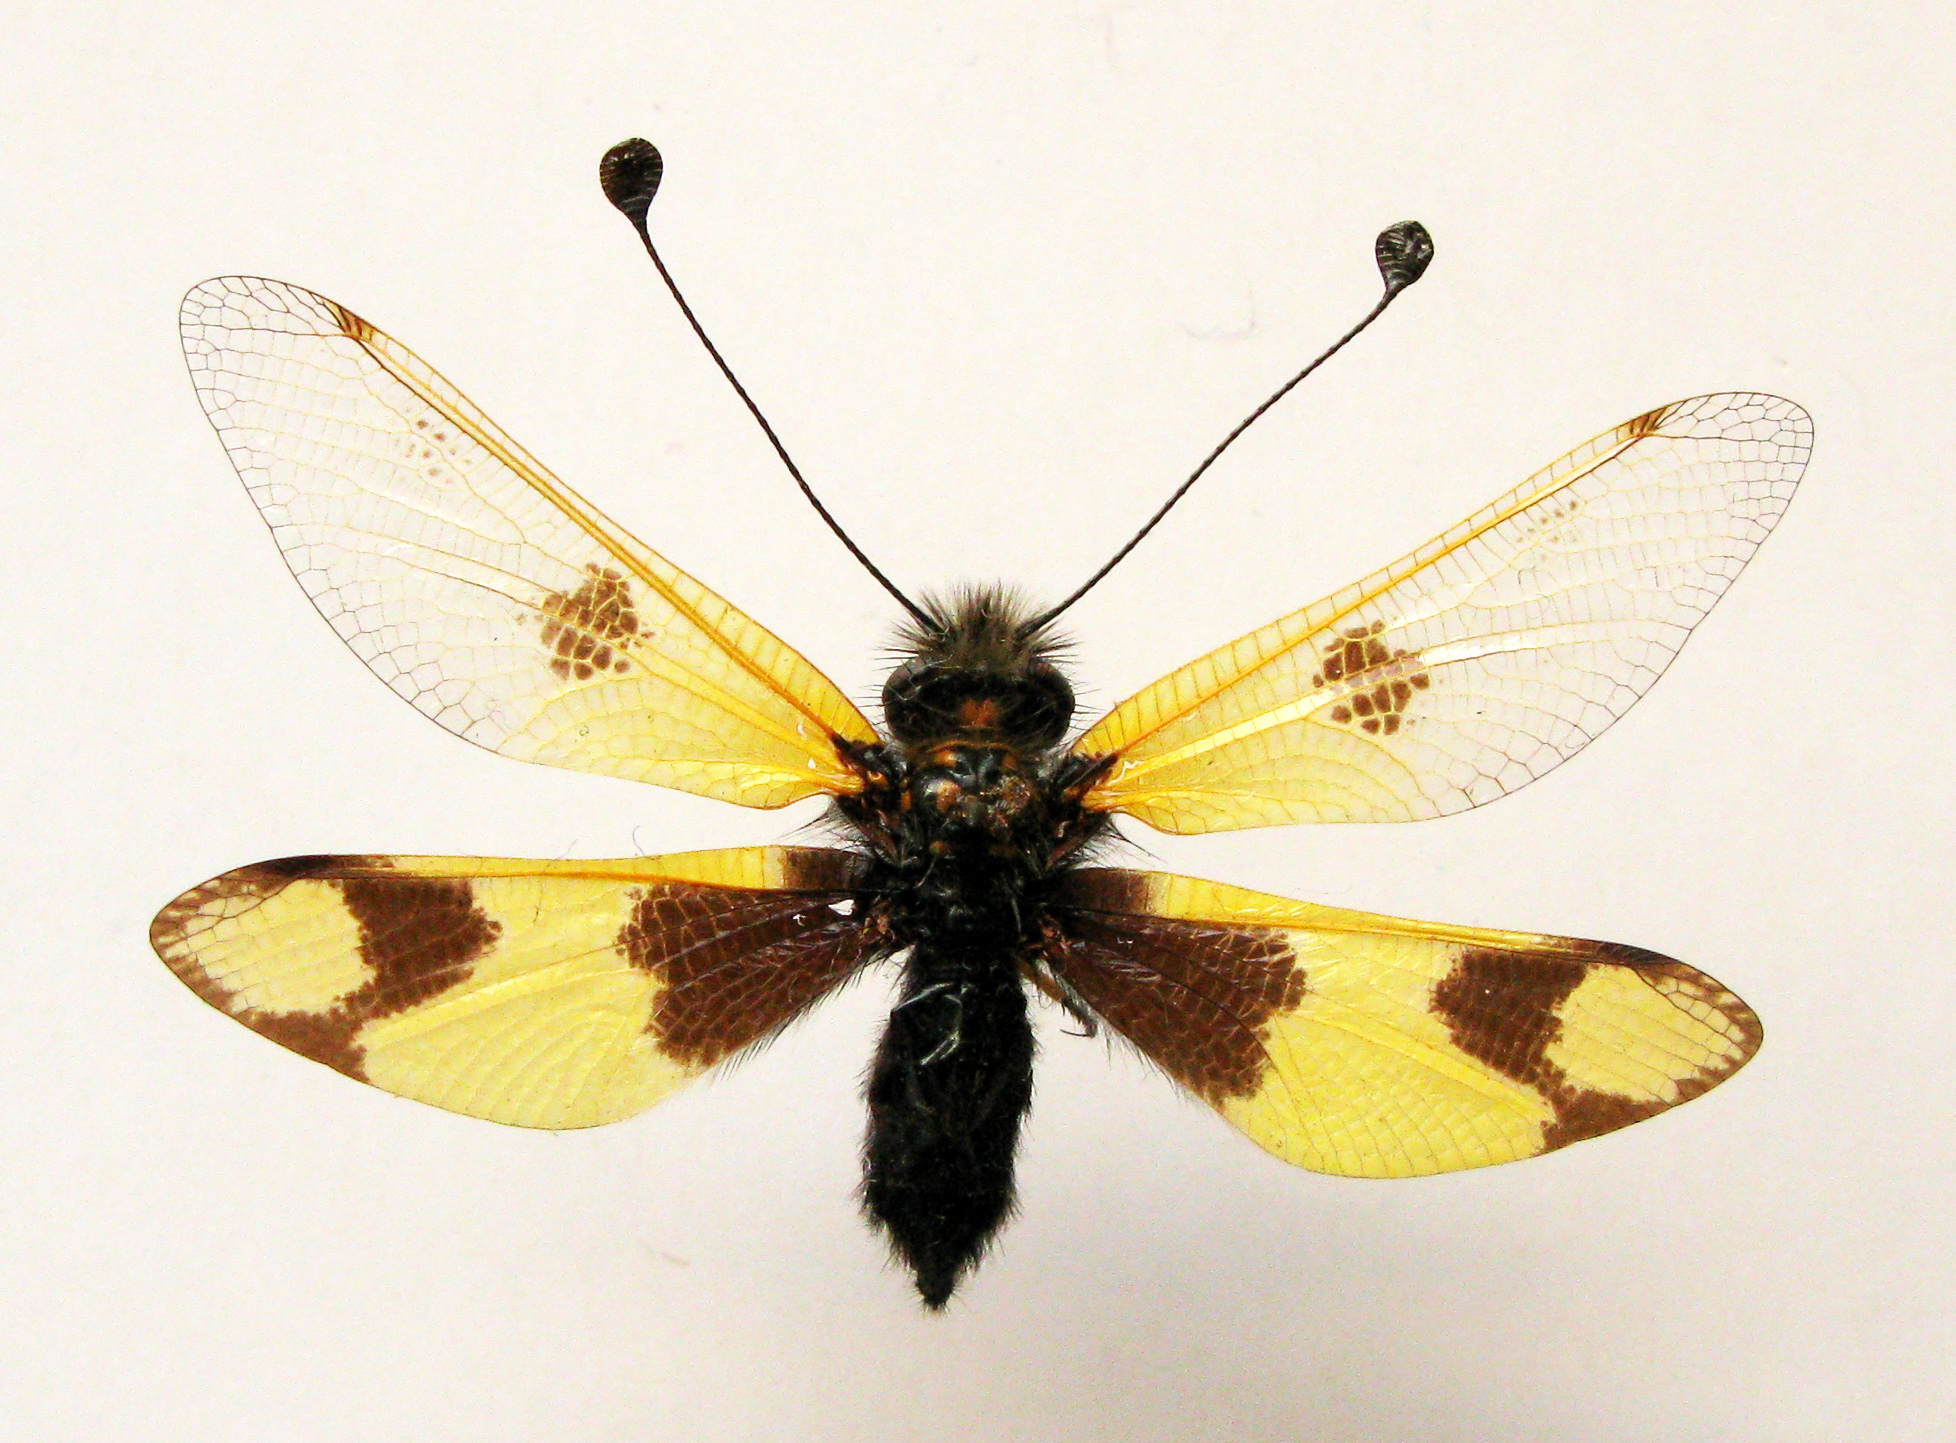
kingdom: Animalia
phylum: Arthropoda
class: Insecta
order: Neuroptera
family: Ascalaphidae
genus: Libelloides
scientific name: Libelloides macaronius
